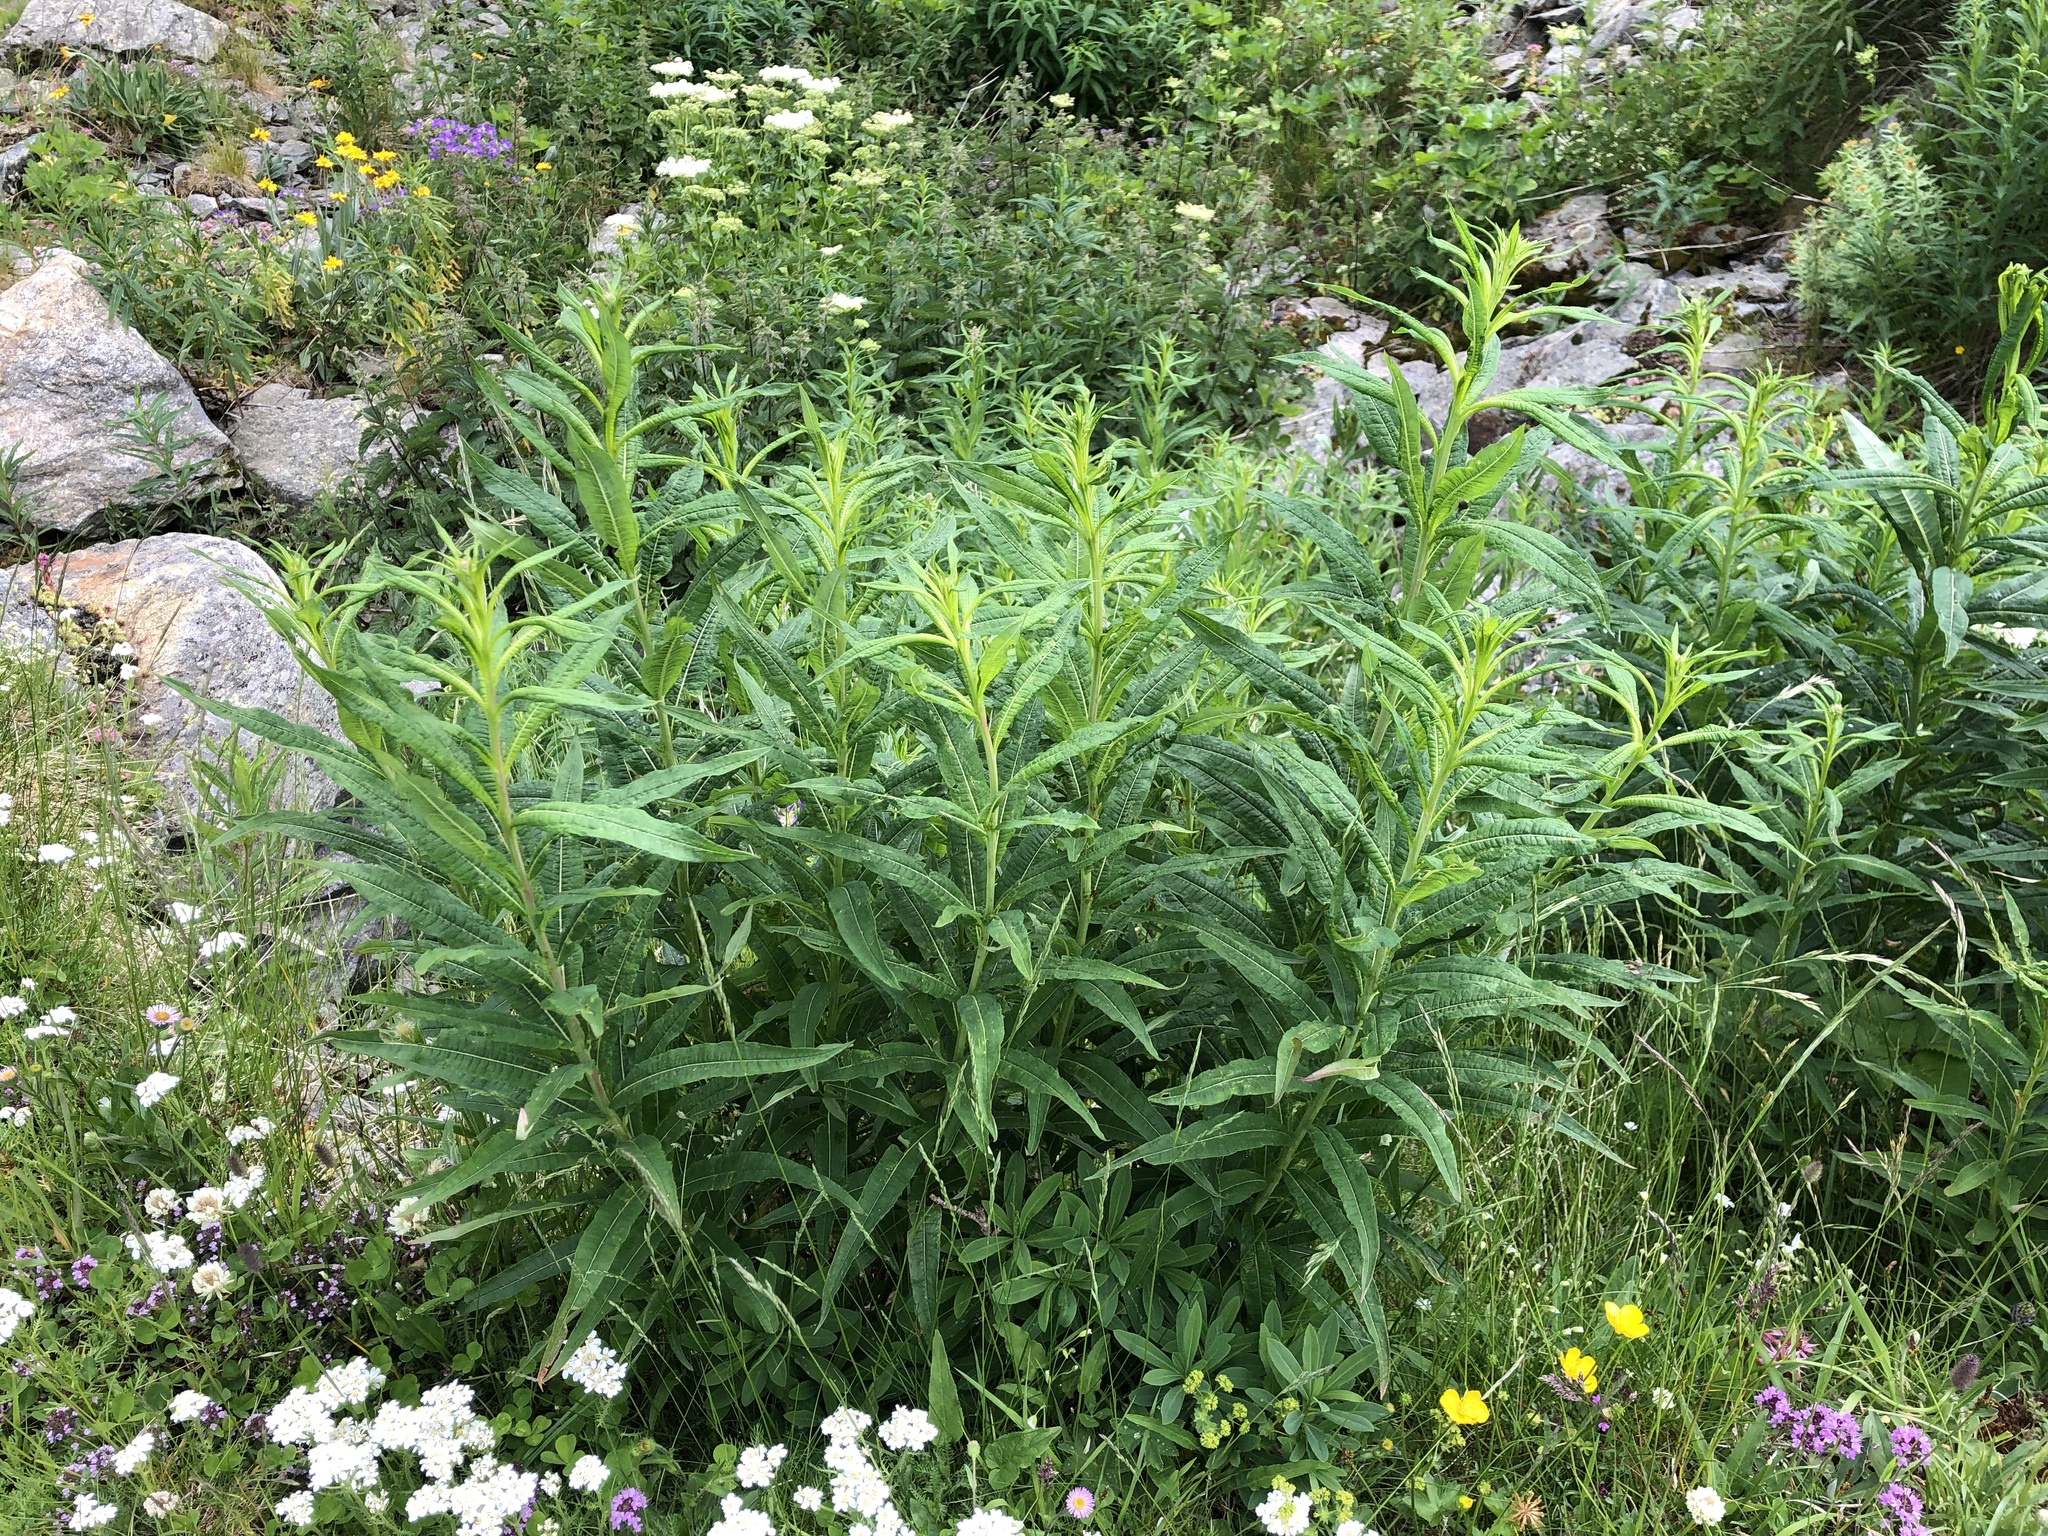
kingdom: Plantae
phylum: Tracheophyta
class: Magnoliopsida
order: Myrtales
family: Onagraceae
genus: Chamaenerion
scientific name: Chamaenerion angustifolium
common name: Fireweed
